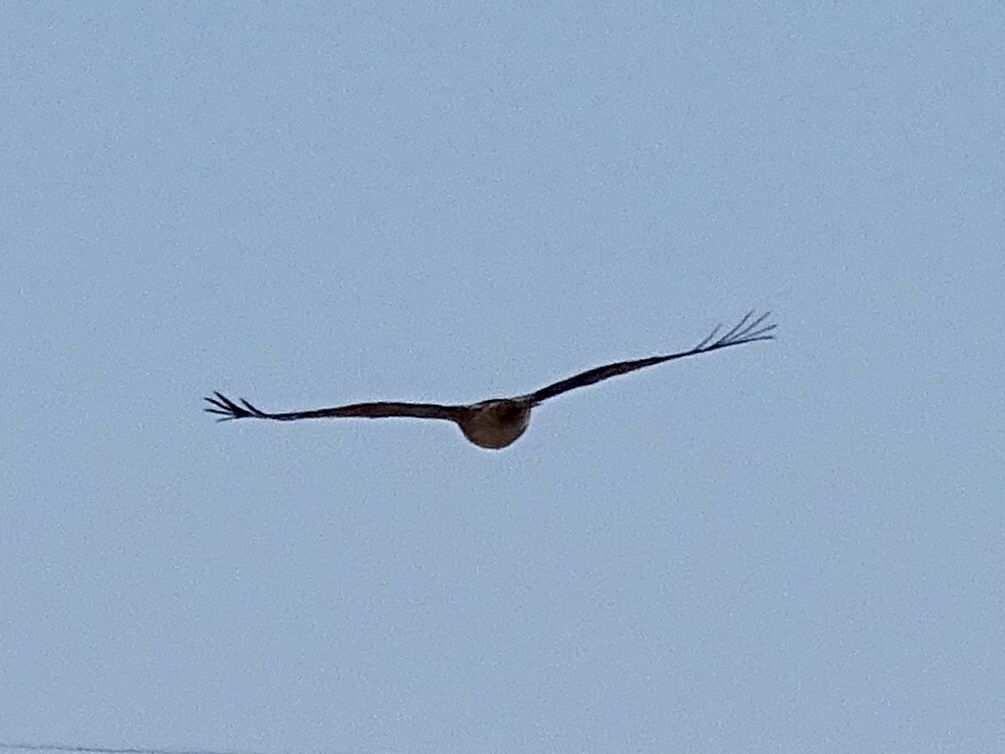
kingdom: Animalia
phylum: Chordata
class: Aves
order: Accipitriformes
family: Accipitridae
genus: Buteo
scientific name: Buteo jamaicensis
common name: Red-tailed hawk
